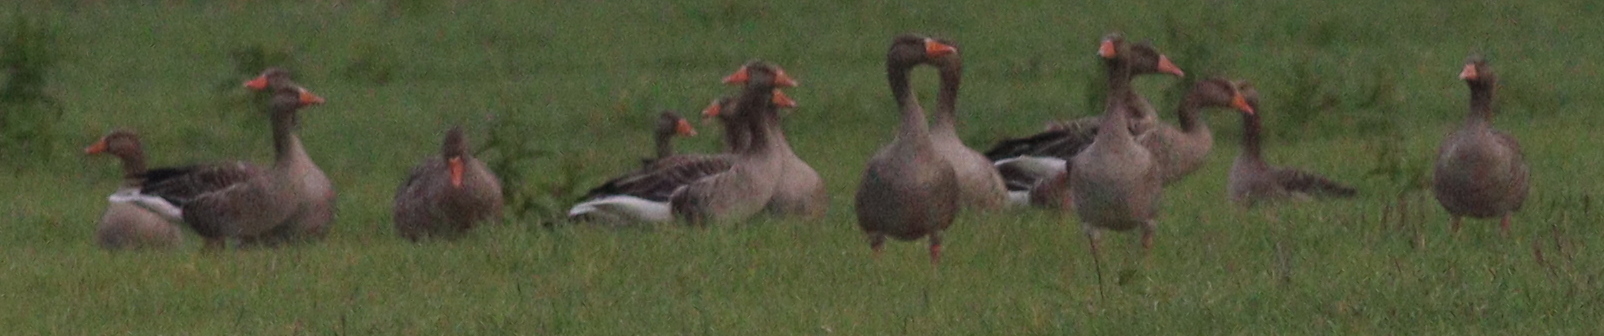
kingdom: Animalia
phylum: Chordata
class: Aves
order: Anseriformes
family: Anatidae
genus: Anser
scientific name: Anser anser
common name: Greylag goose
